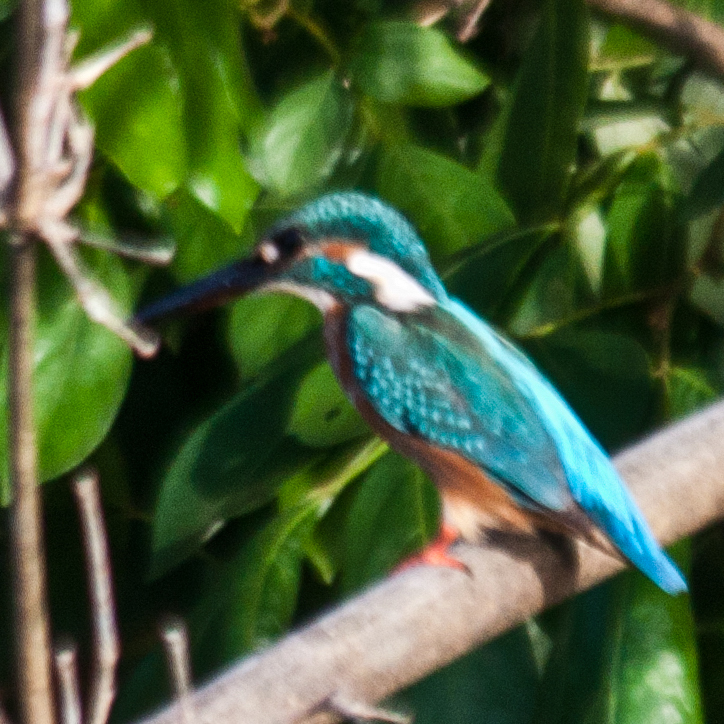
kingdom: Animalia
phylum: Chordata
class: Aves
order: Coraciiformes
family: Alcedinidae
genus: Alcedo
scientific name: Alcedo atthis
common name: Common kingfisher
